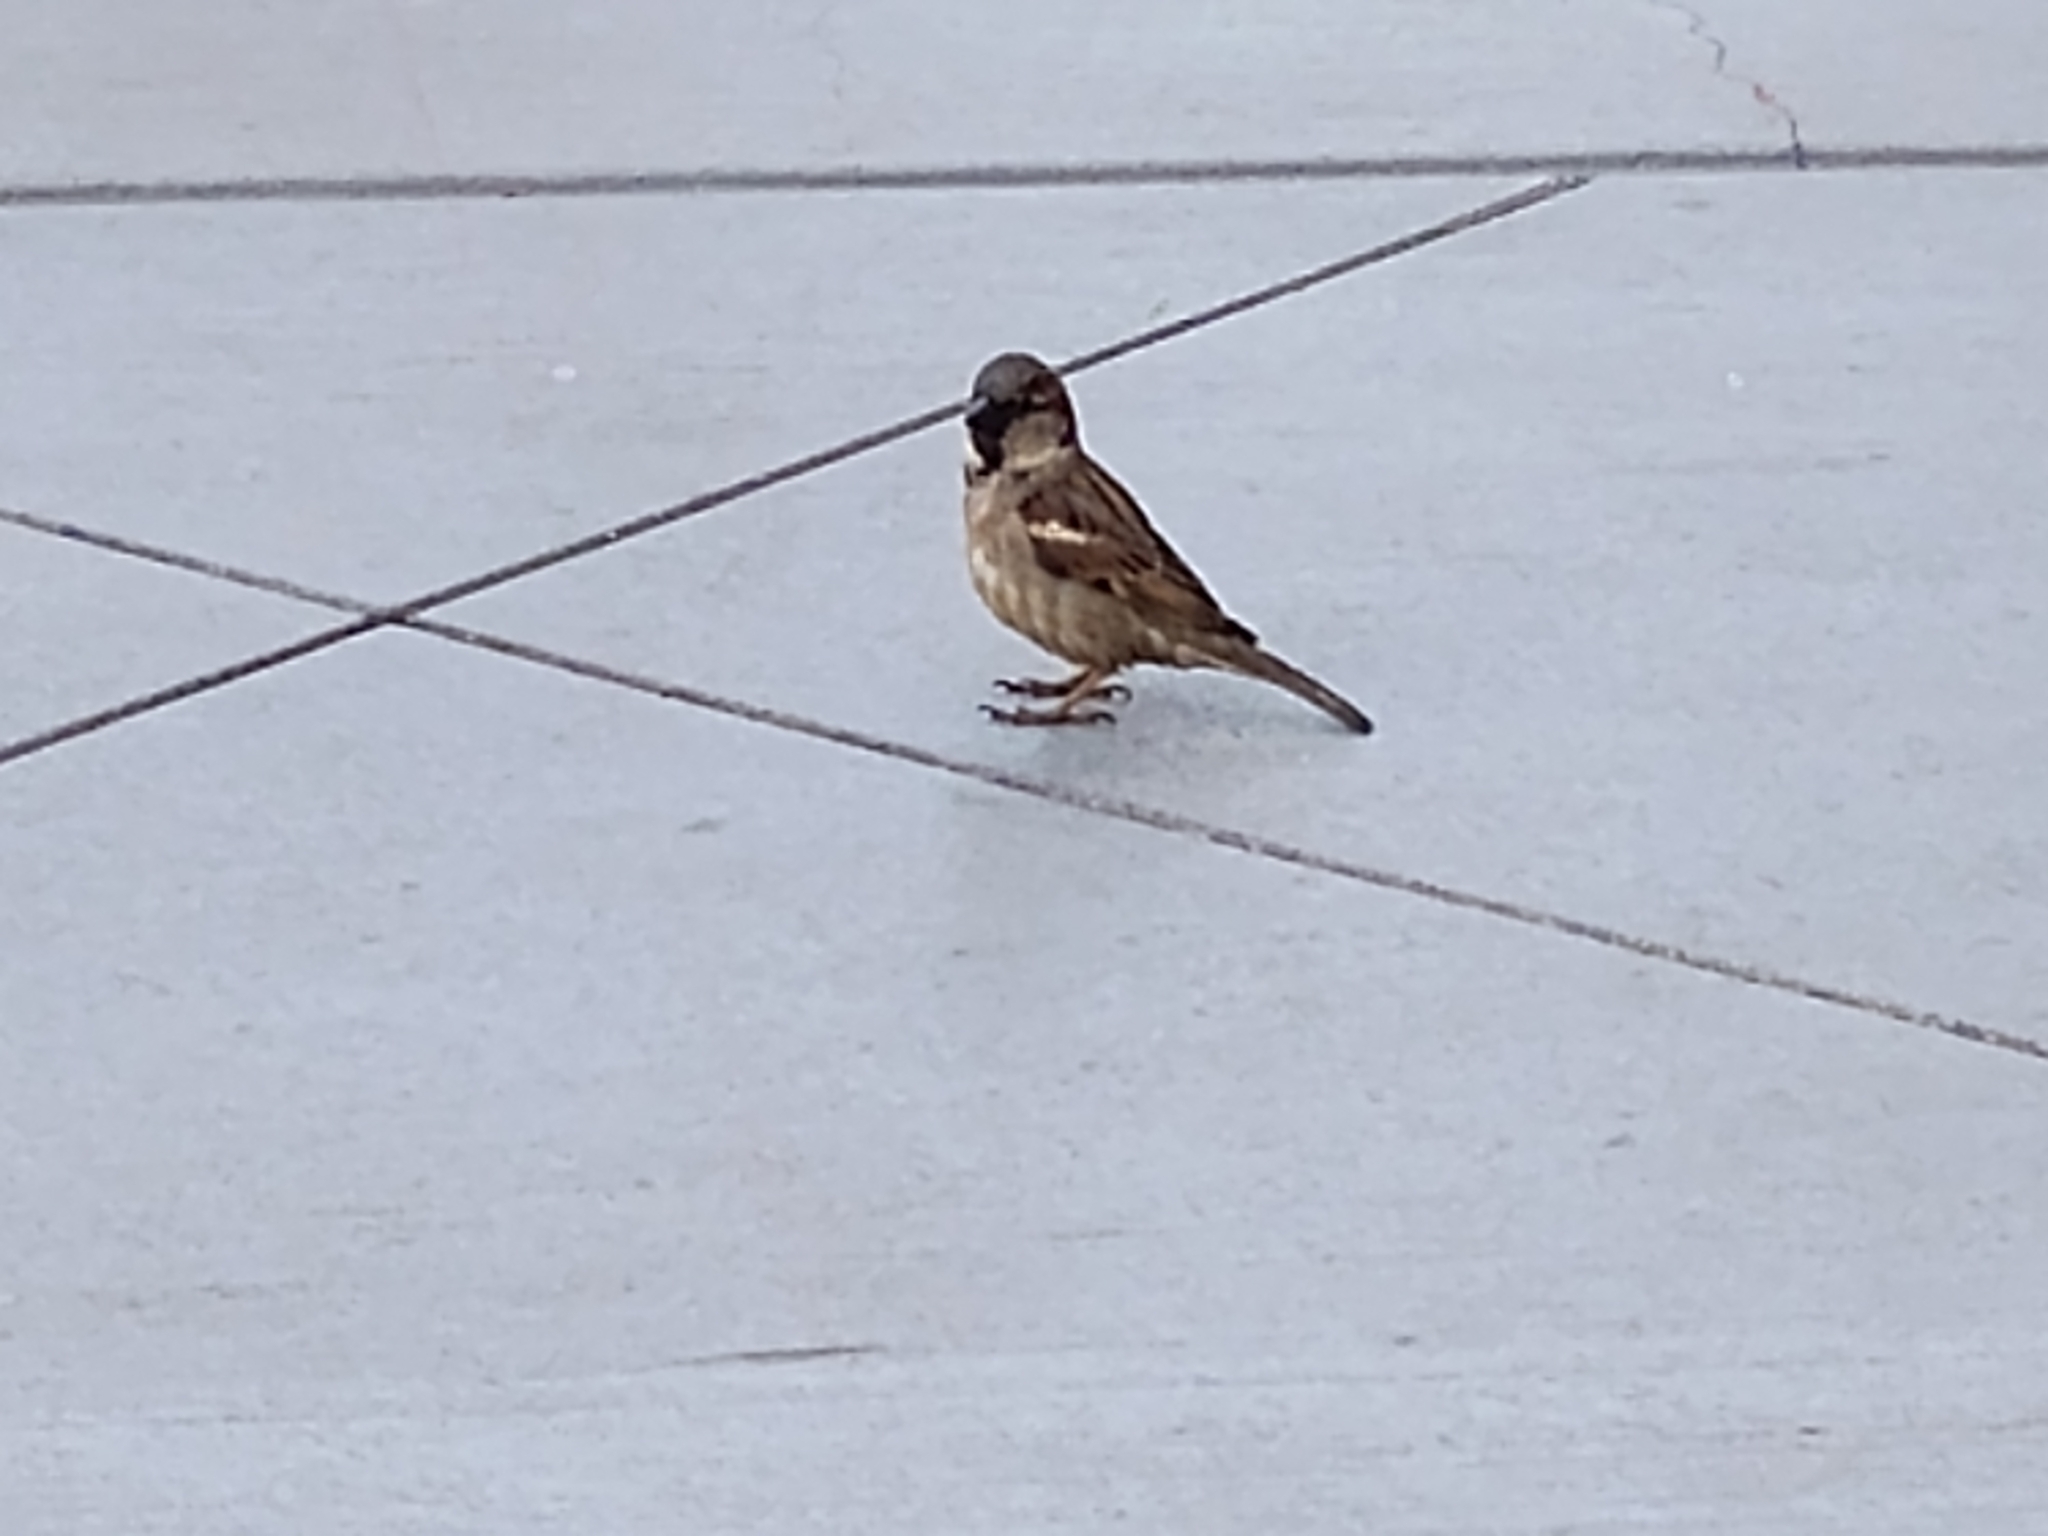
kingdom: Animalia
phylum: Chordata
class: Aves
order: Passeriformes
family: Passeridae
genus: Passer
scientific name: Passer domesticus
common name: House sparrow
